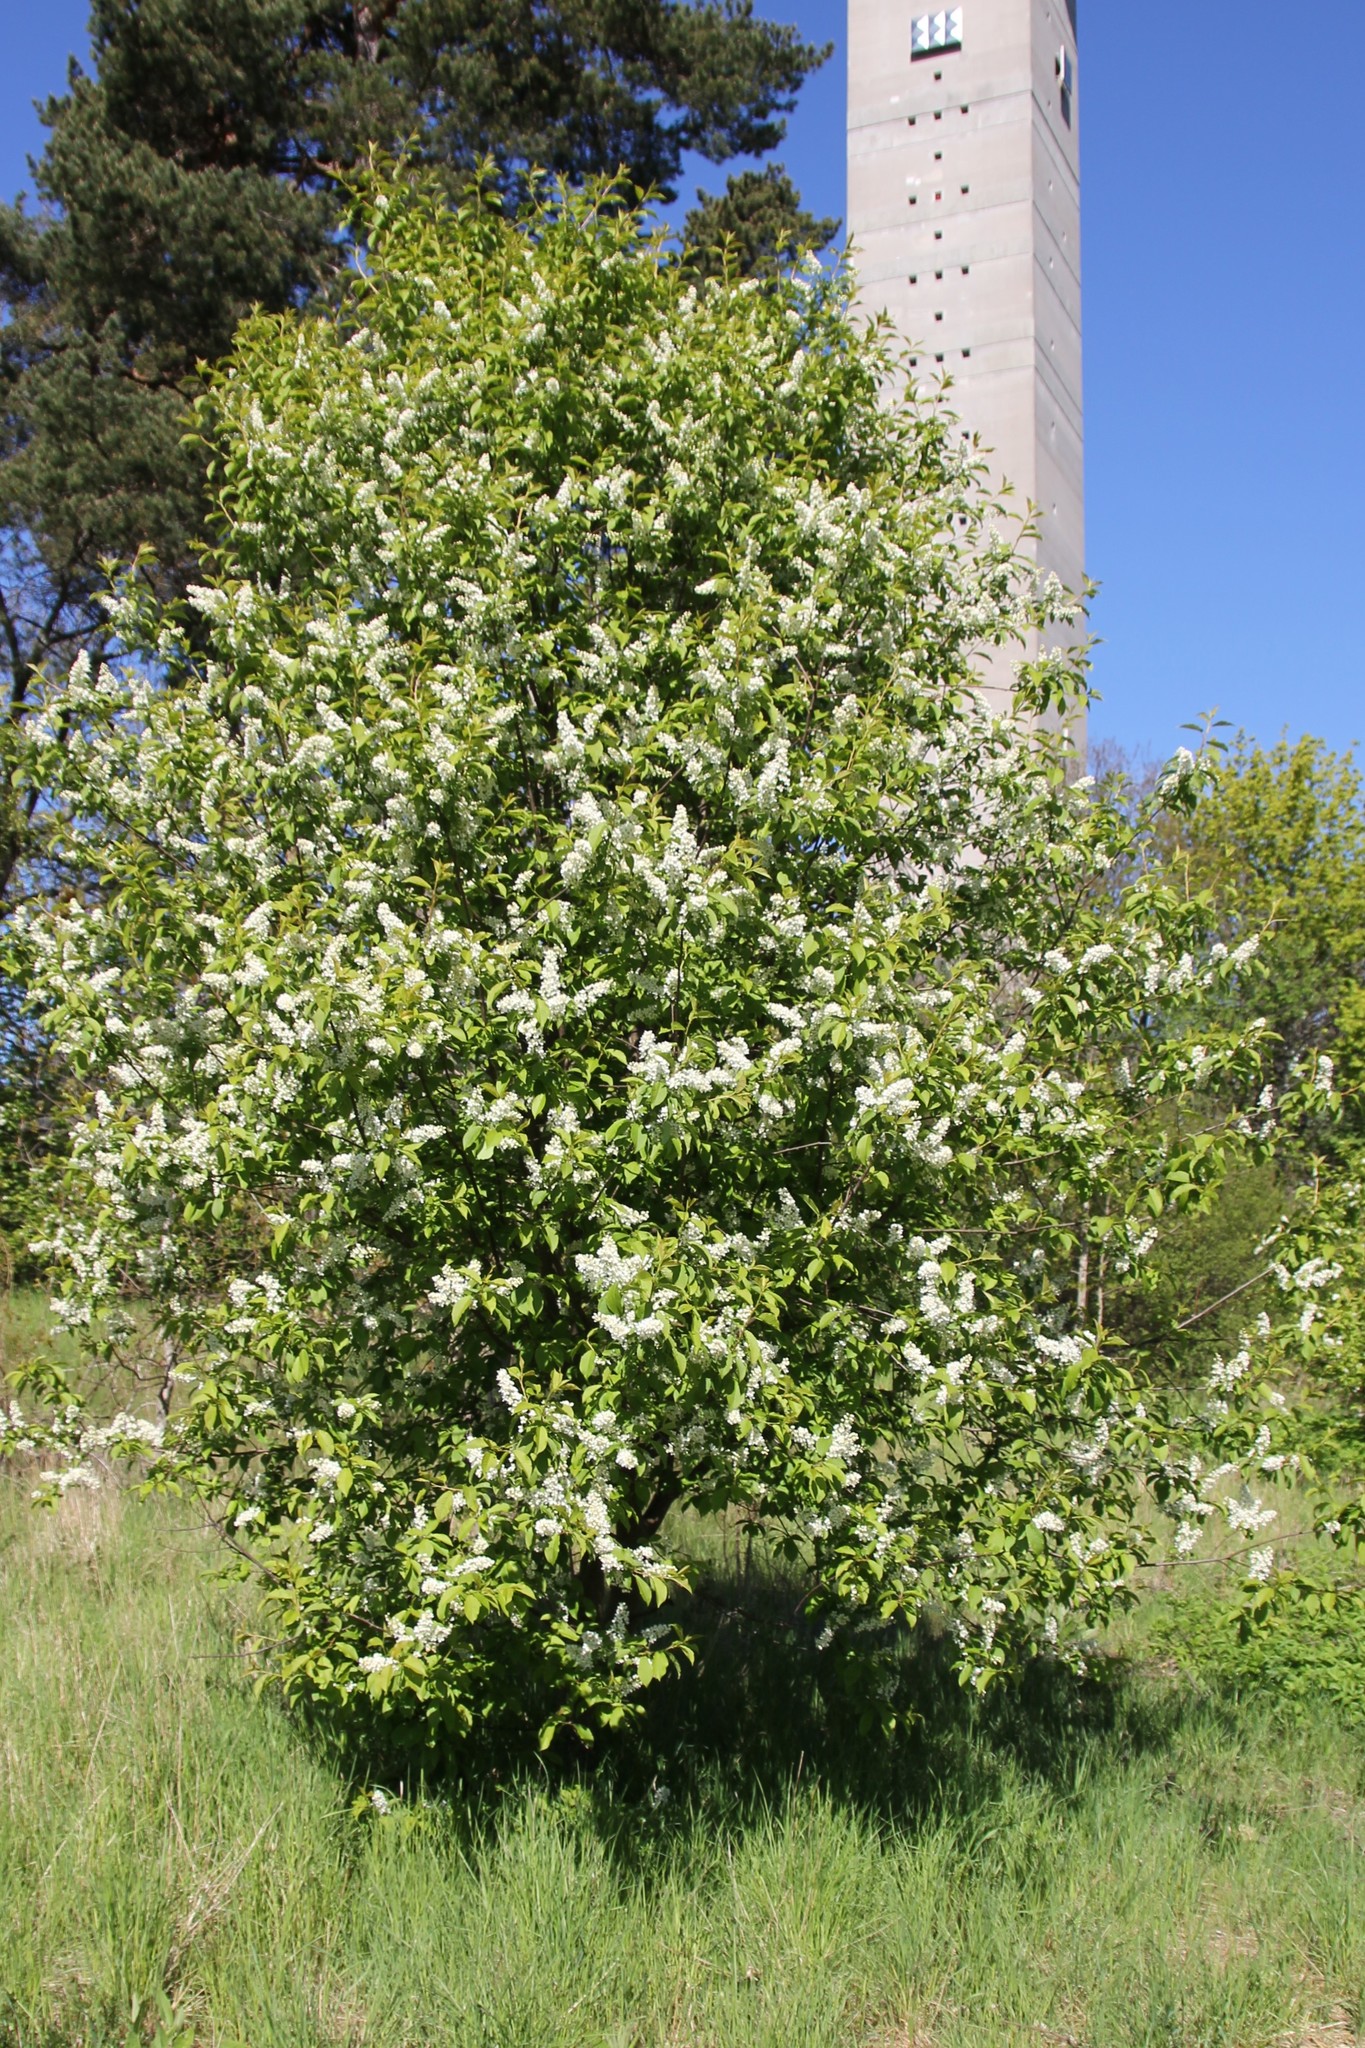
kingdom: Plantae
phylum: Tracheophyta
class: Magnoliopsida
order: Rosales
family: Rosaceae
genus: Prunus
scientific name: Prunus padus
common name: Bird cherry
